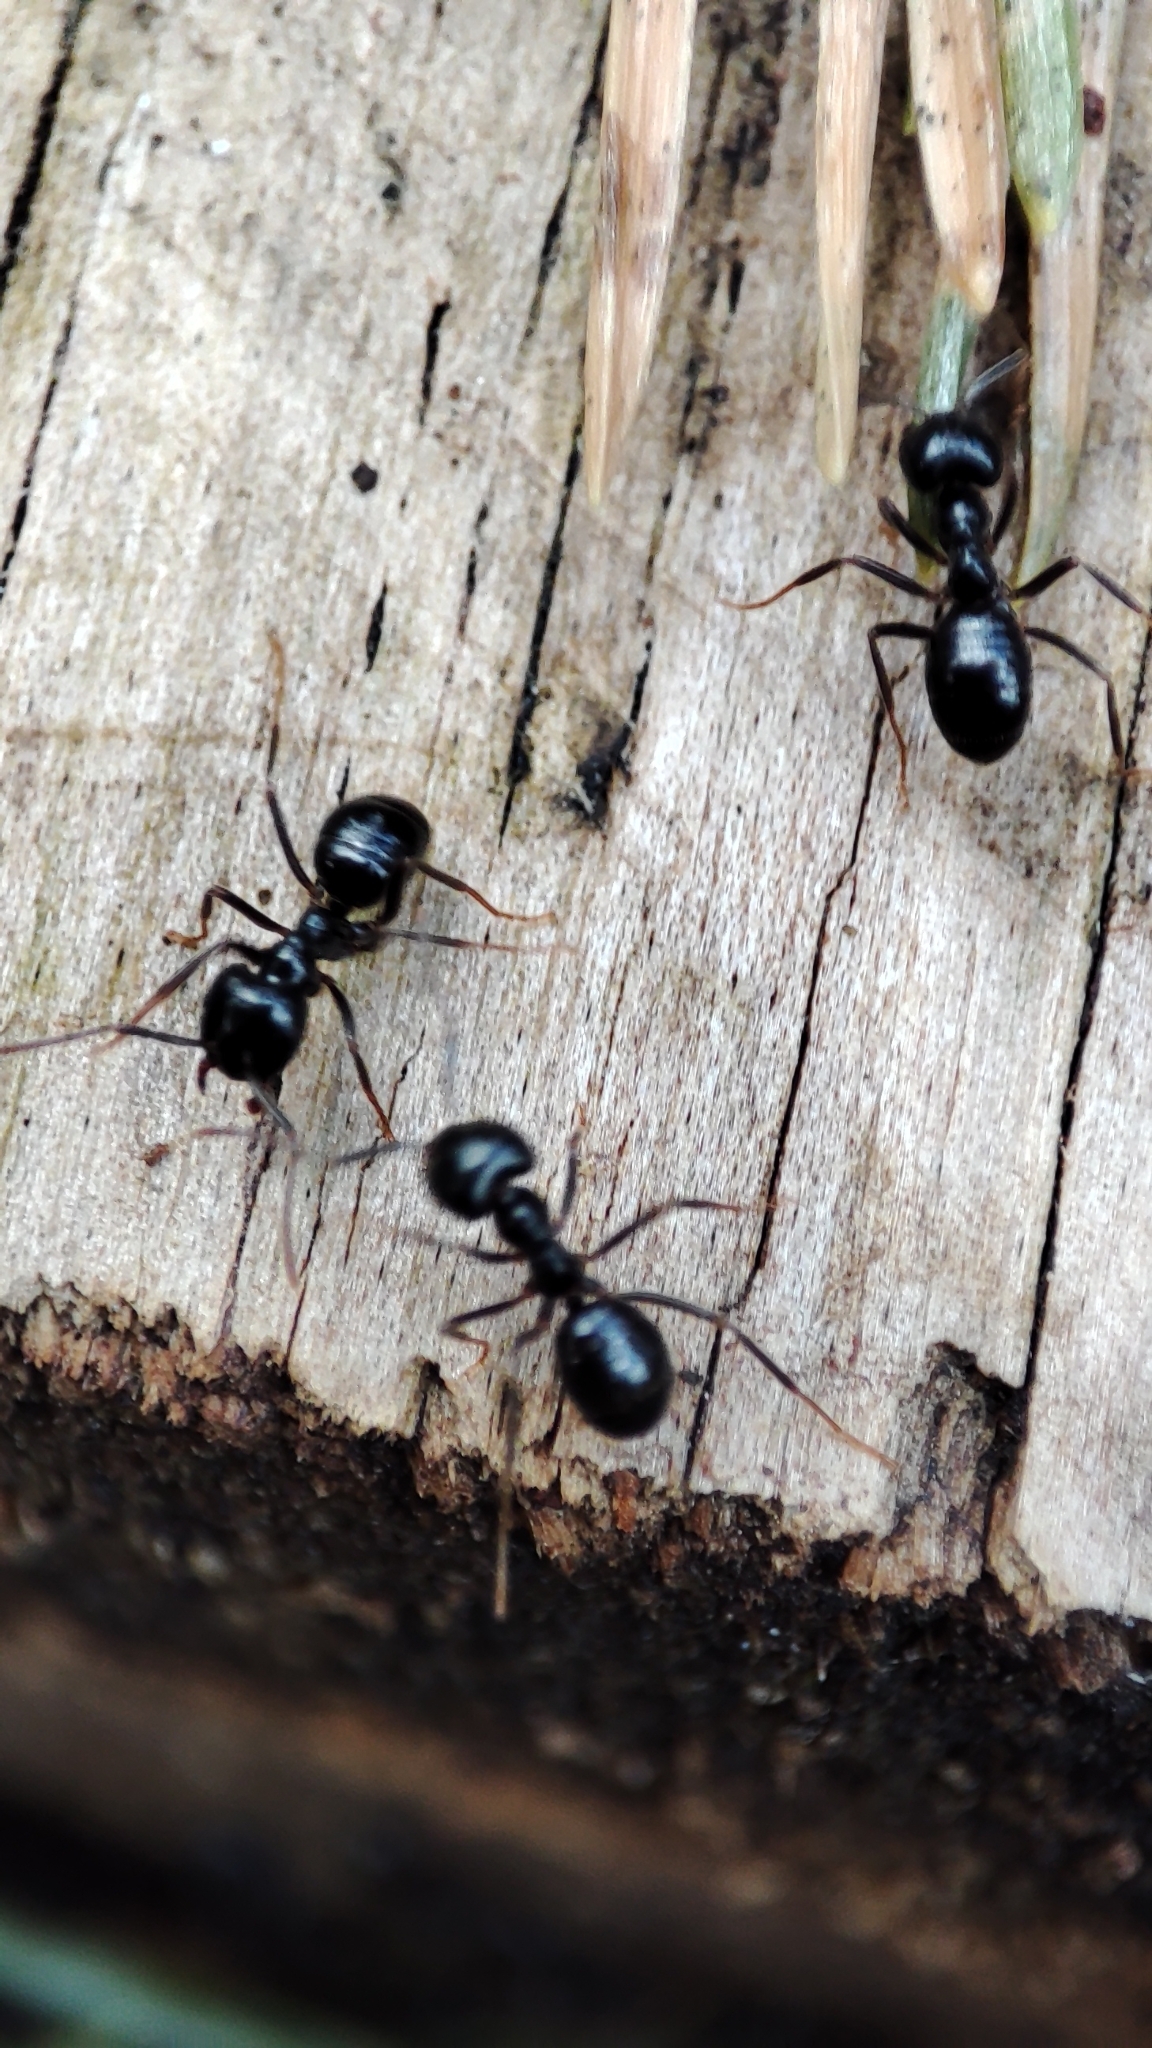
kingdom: Animalia
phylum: Arthropoda
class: Insecta
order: Hymenoptera
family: Formicidae
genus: Lasius
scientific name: Lasius fuliginosus
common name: Jet ant
